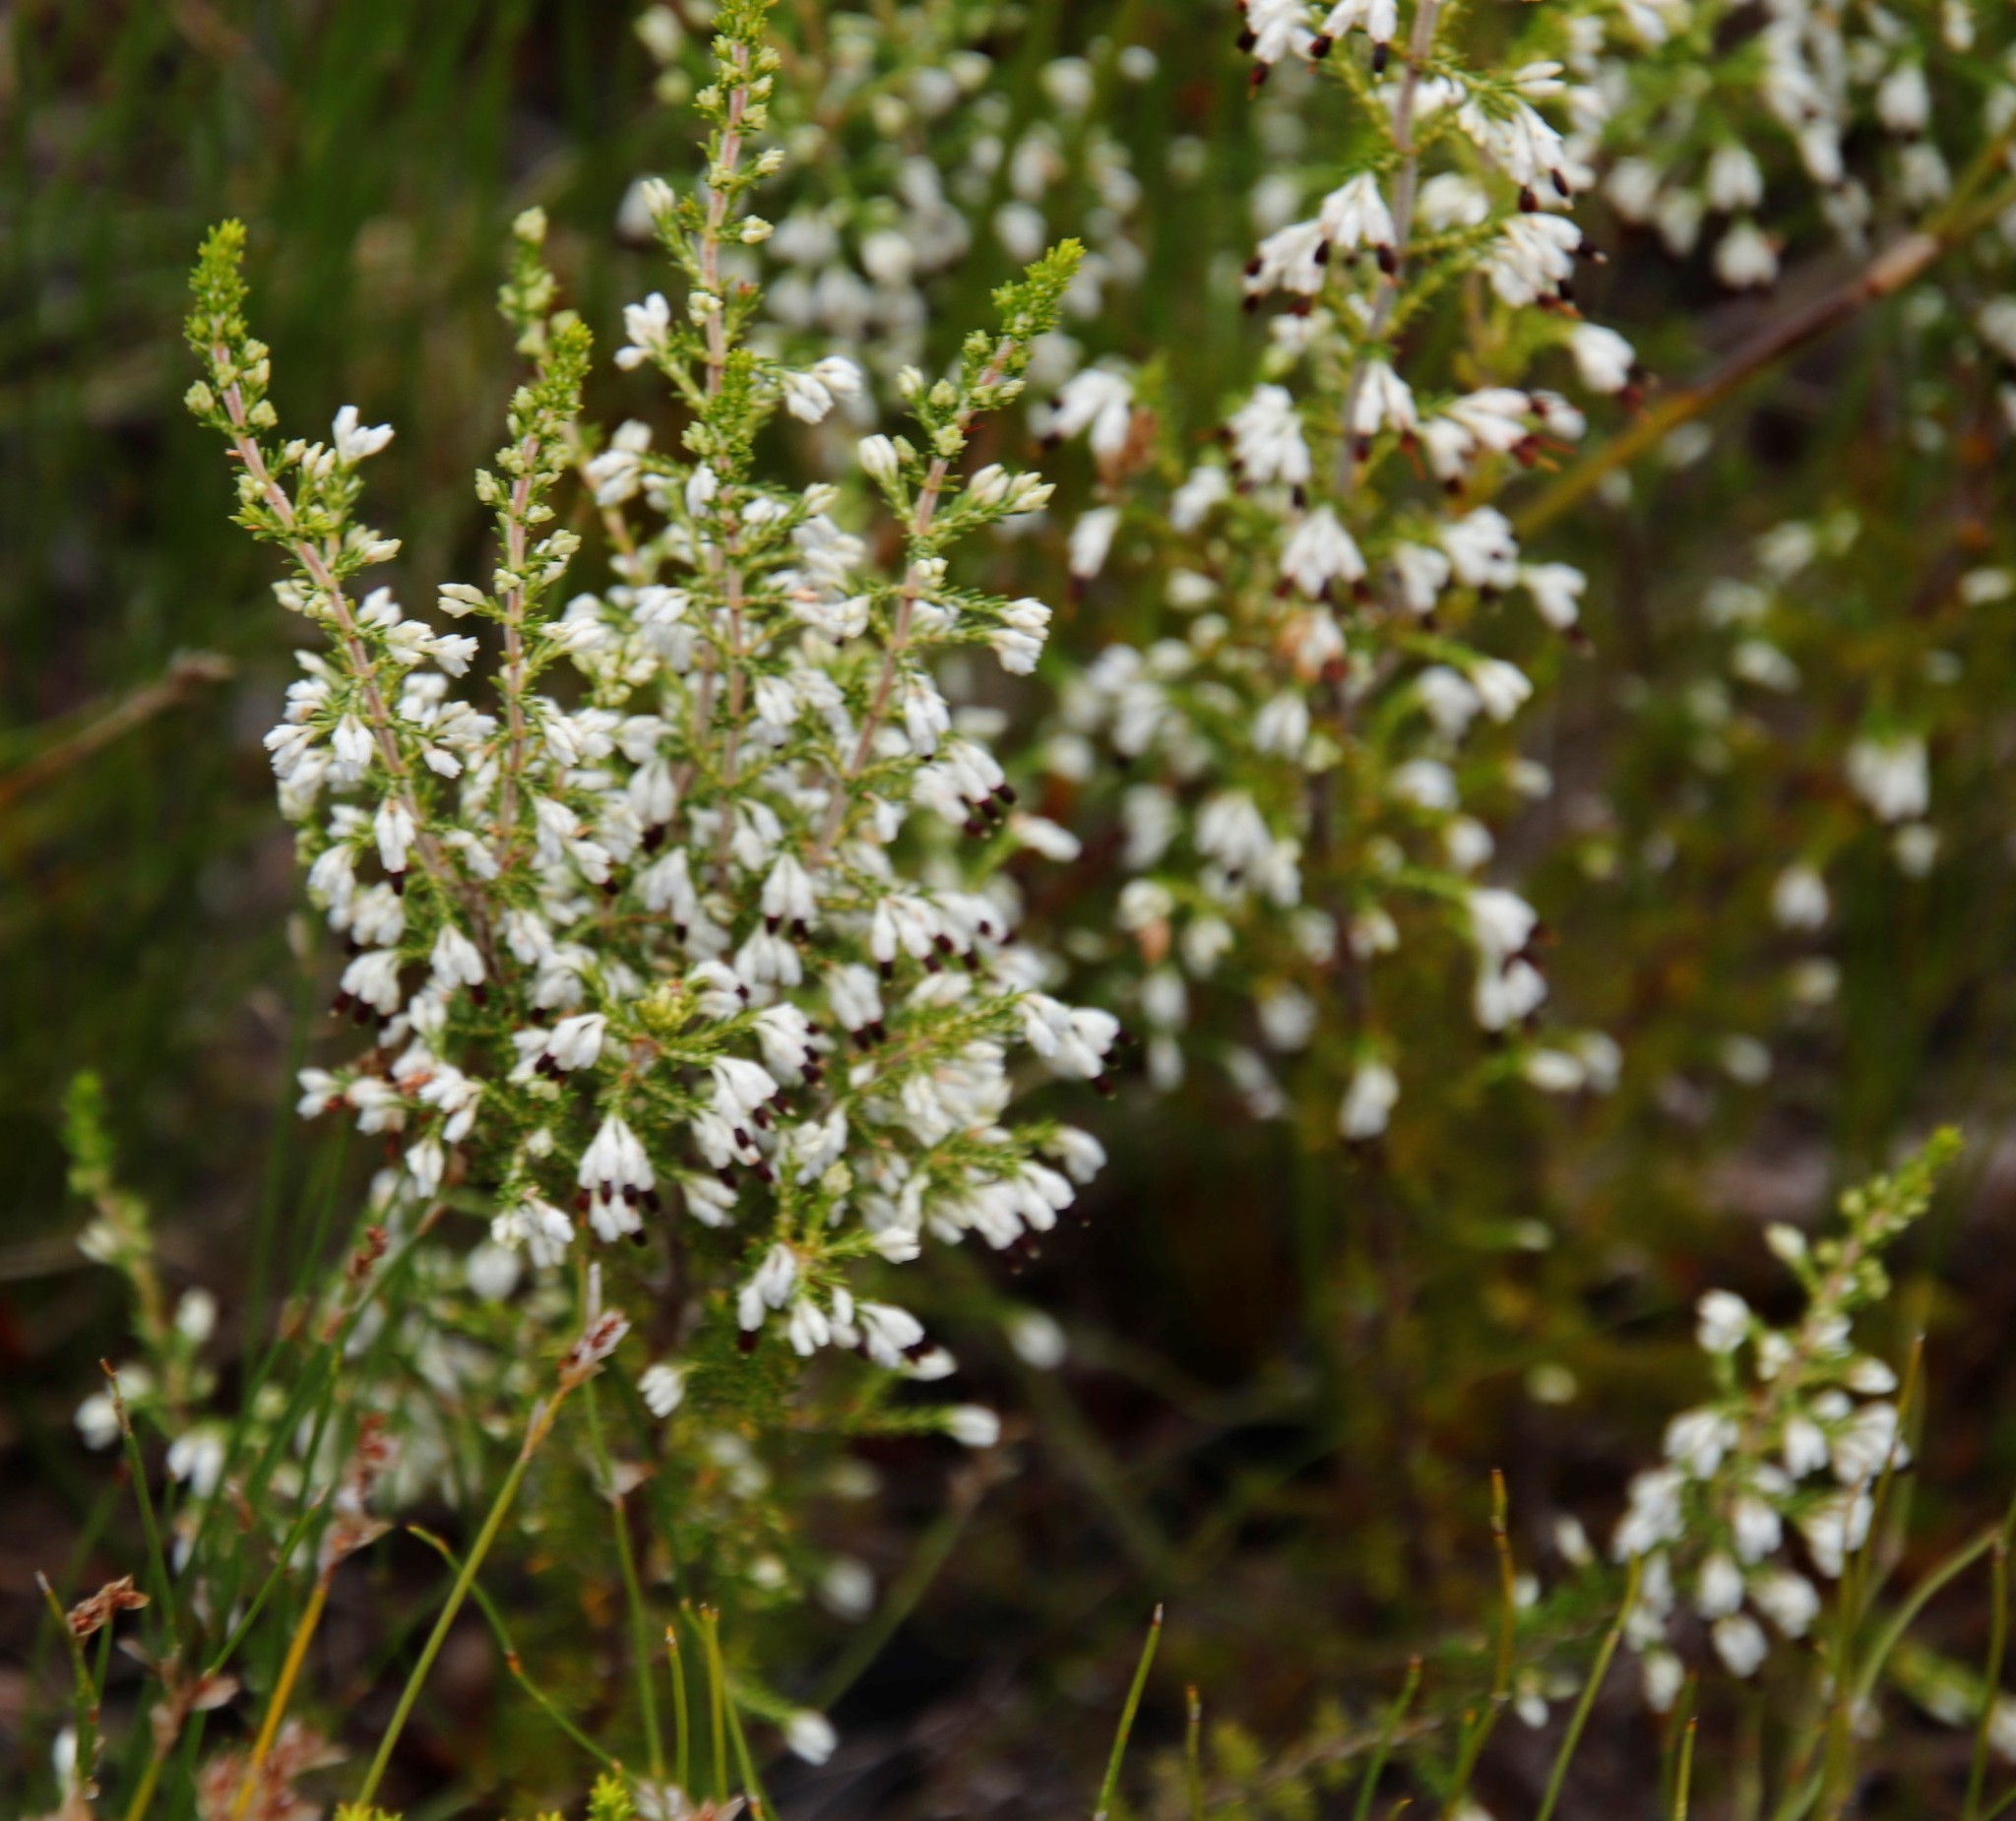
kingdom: Plantae
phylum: Tracheophyta
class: Magnoliopsida
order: Ericales
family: Ericaceae
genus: Erica
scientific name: Erica imbricata
